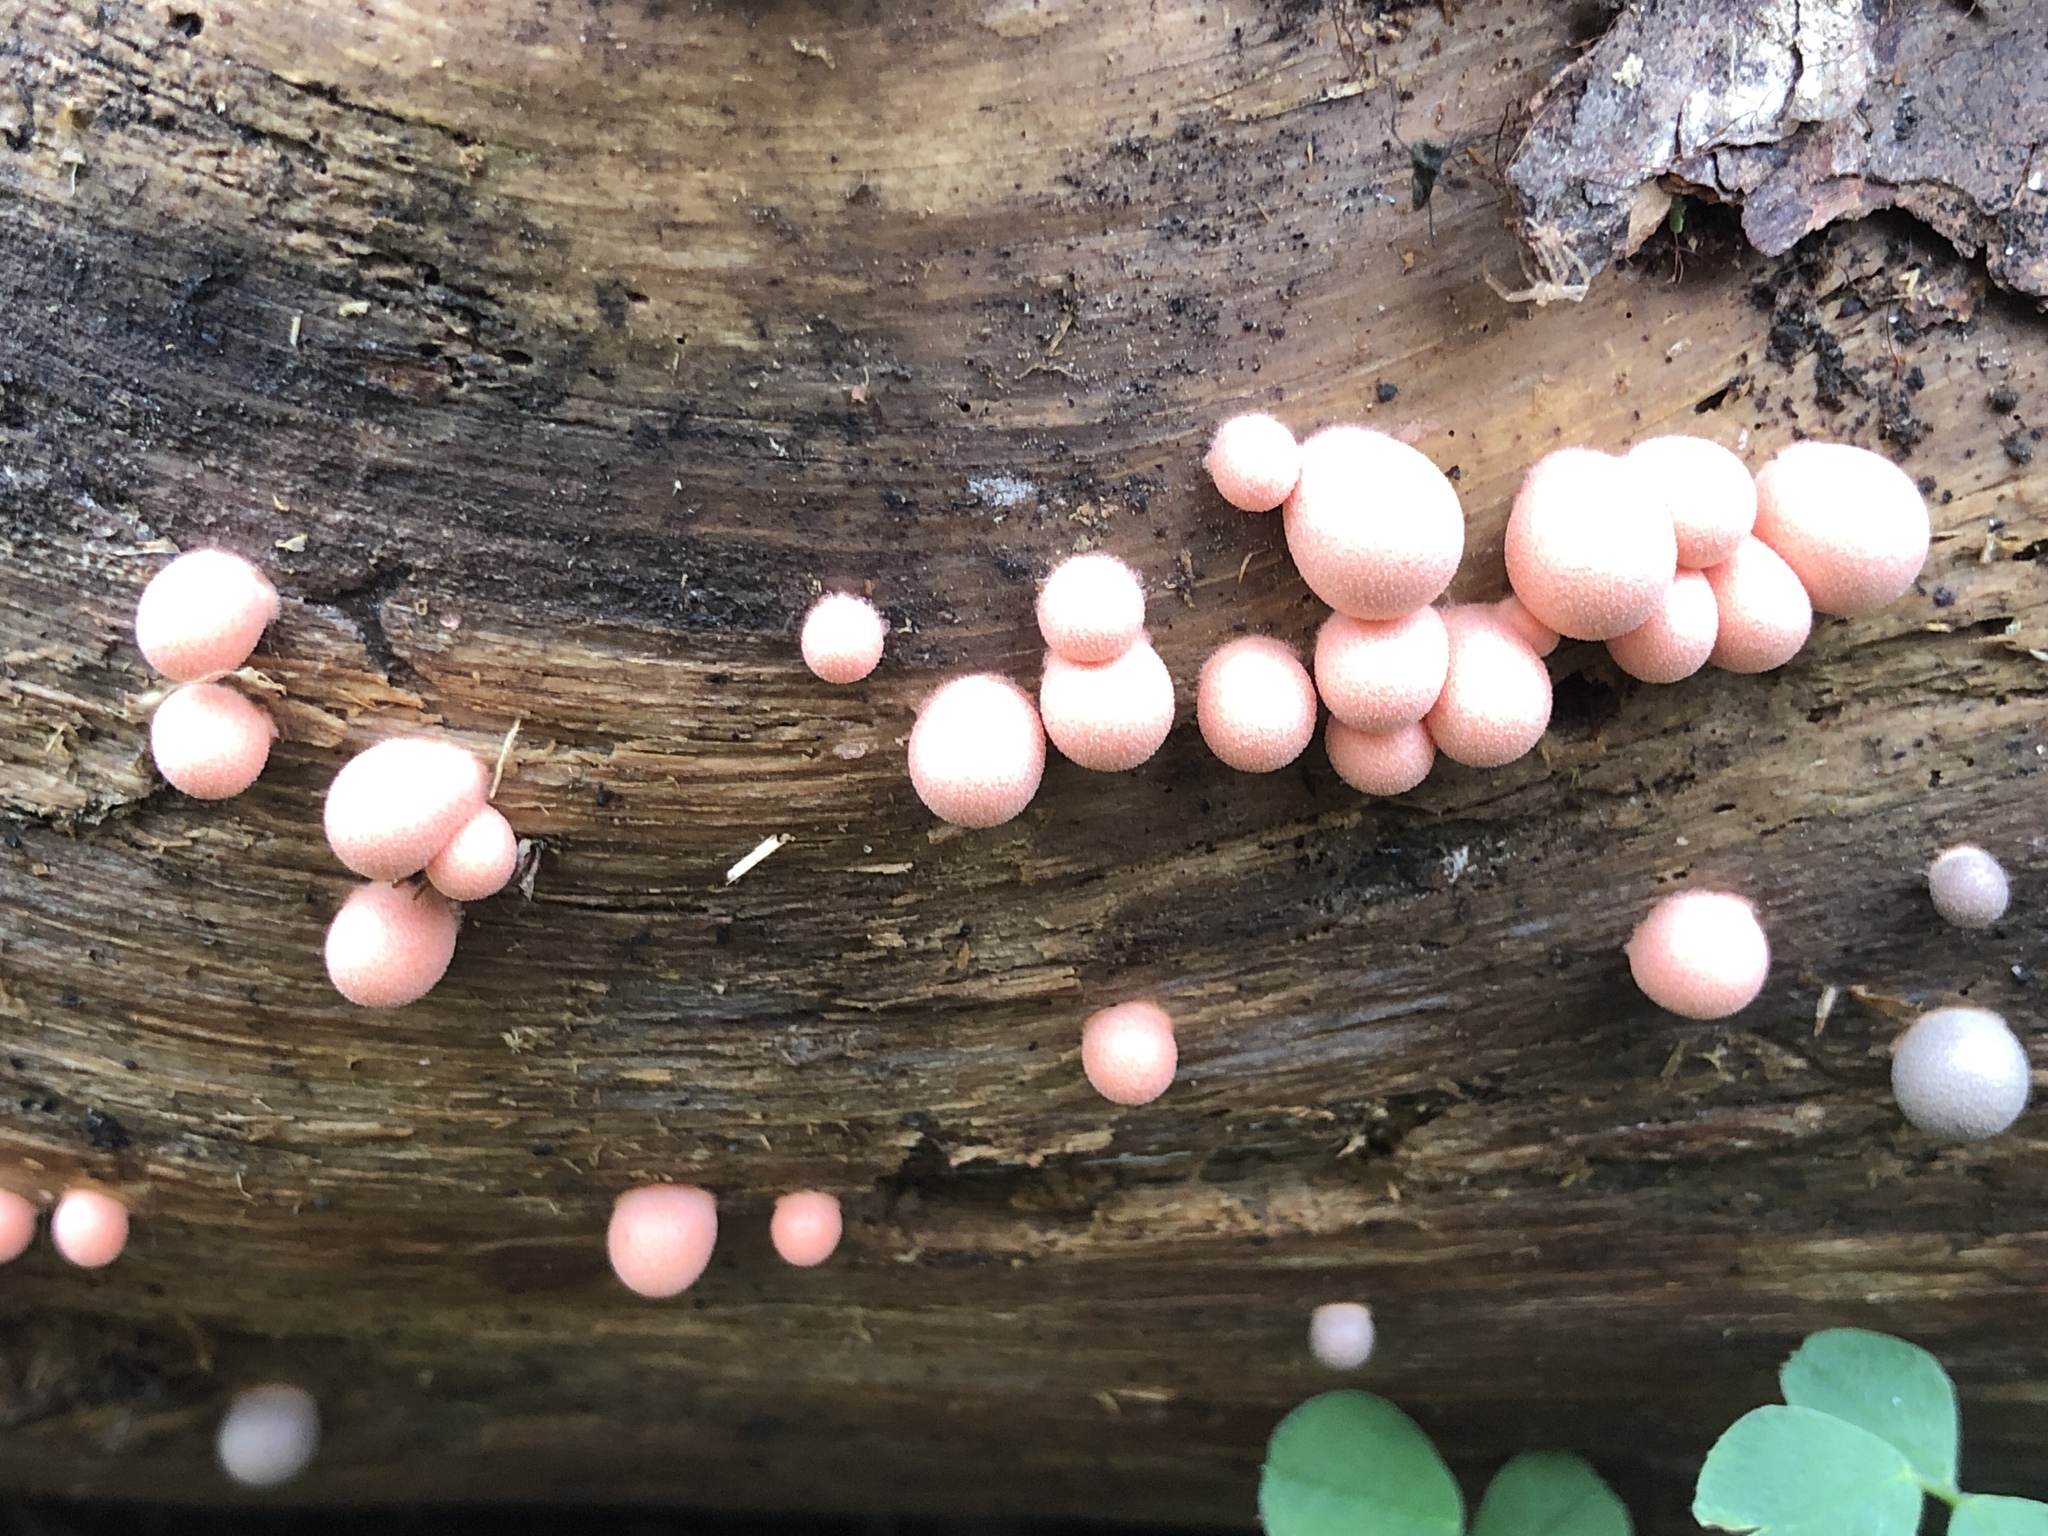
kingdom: Protozoa
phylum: Mycetozoa
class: Myxomycetes
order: Cribrariales
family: Tubiferaceae
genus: Lycogala
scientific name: Lycogala epidendrum
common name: Wolf's milk
